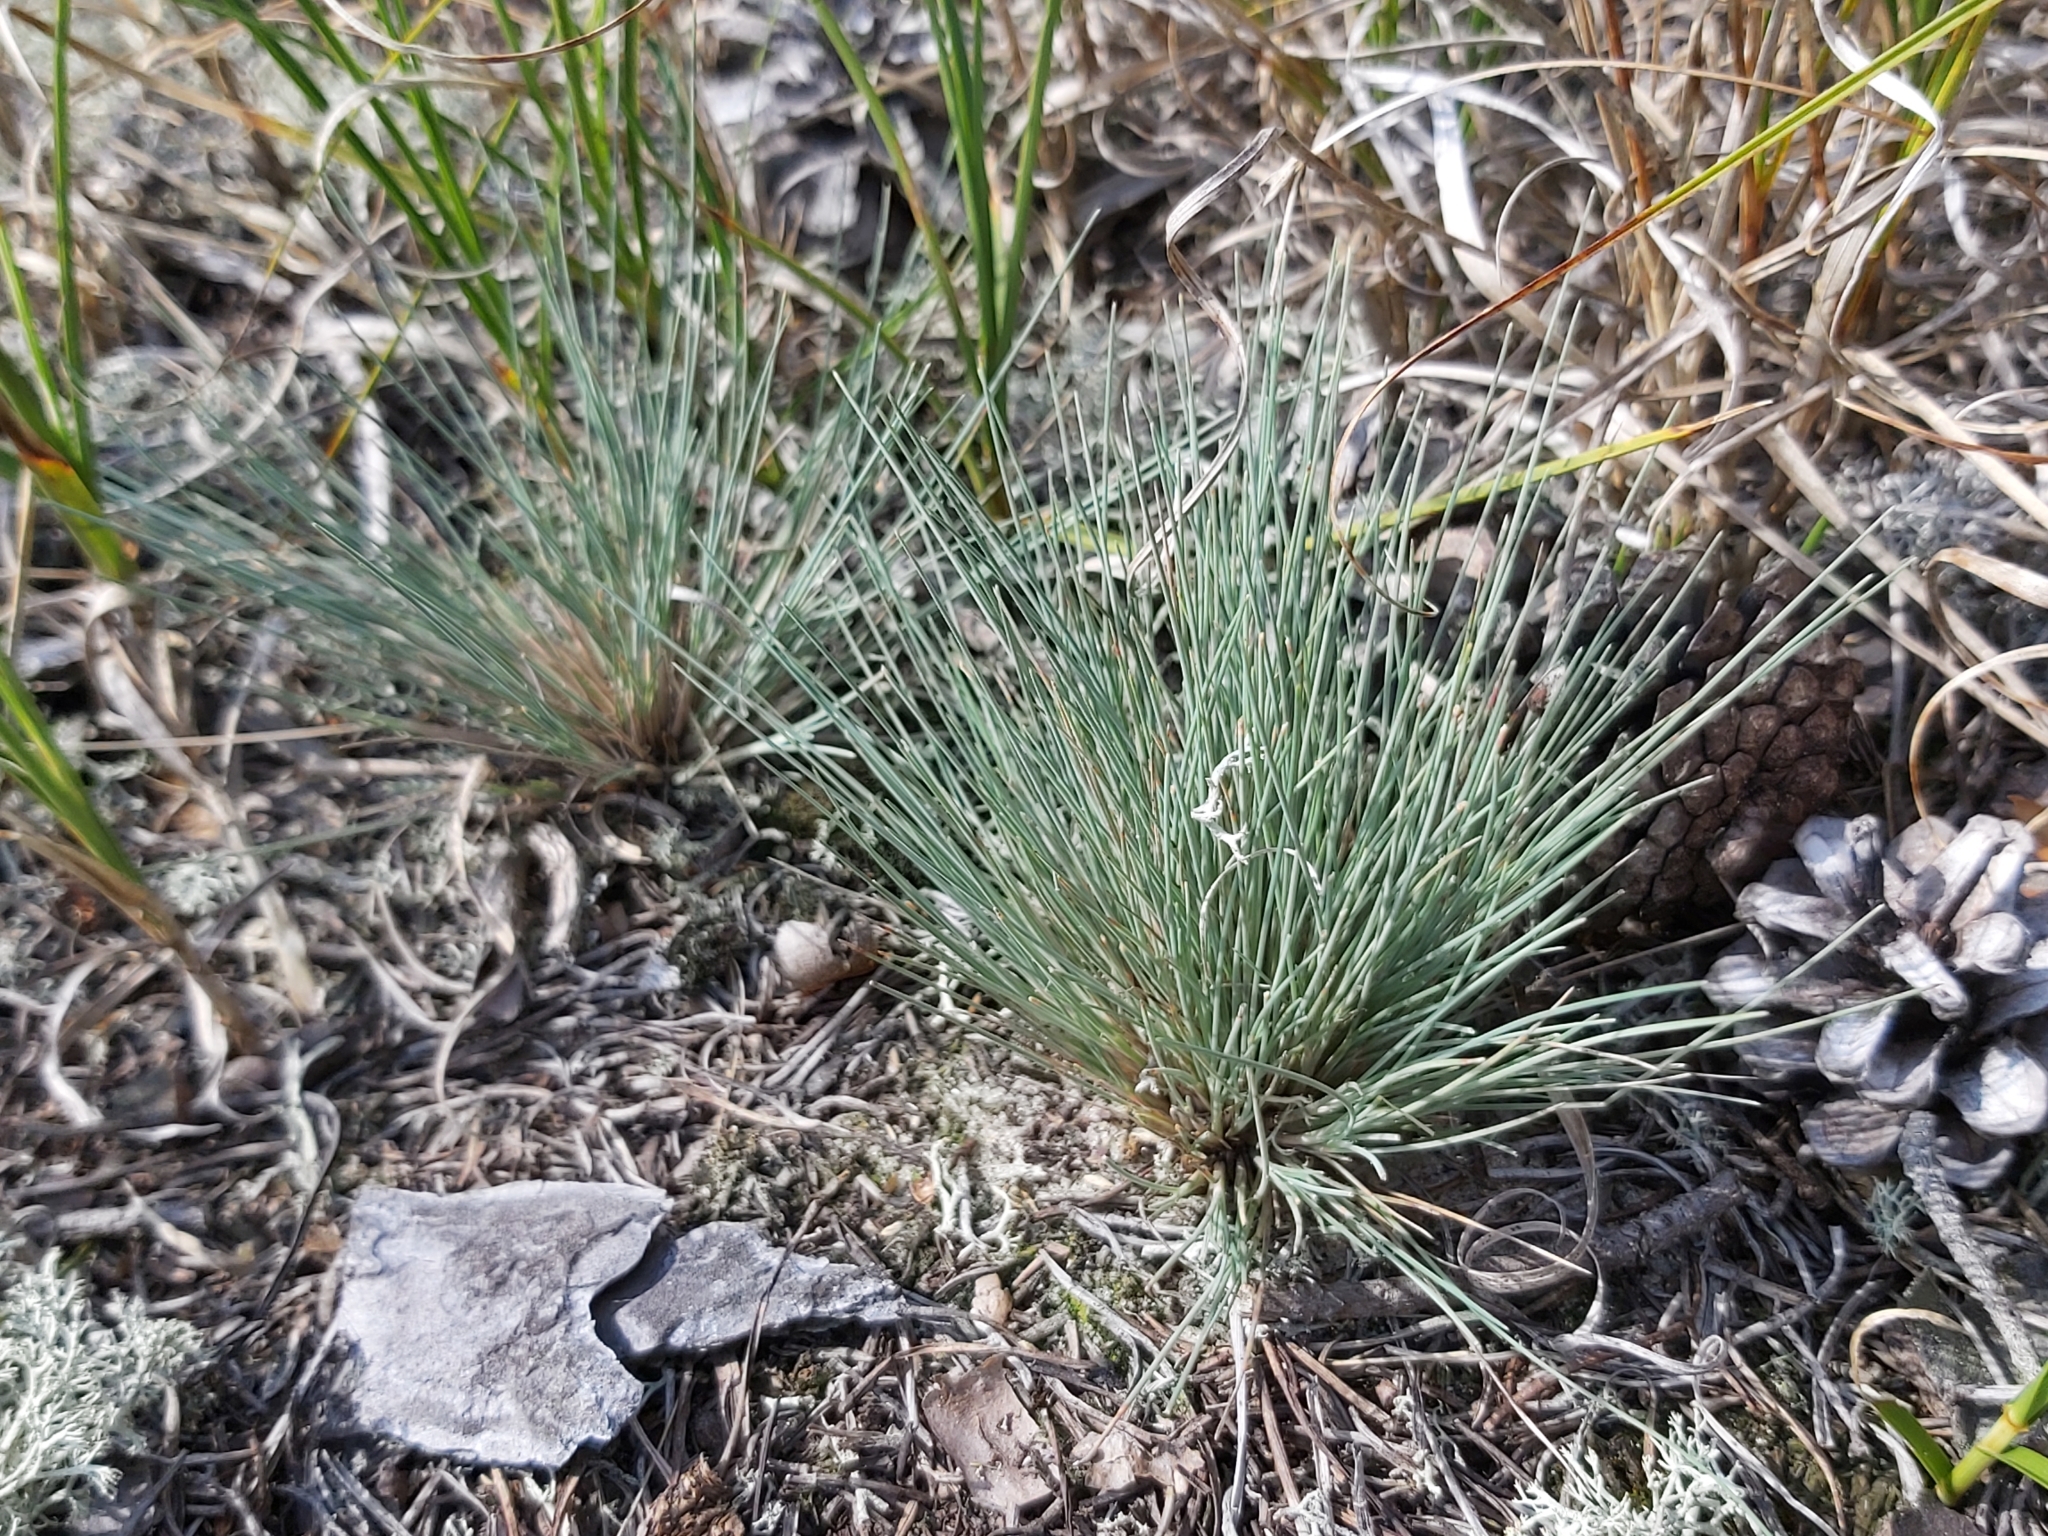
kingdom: Plantae
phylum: Tracheophyta
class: Liliopsida
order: Poales
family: Poaceae
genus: Corynephorus
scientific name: Corynephorus canescens
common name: Grey hair-grass
